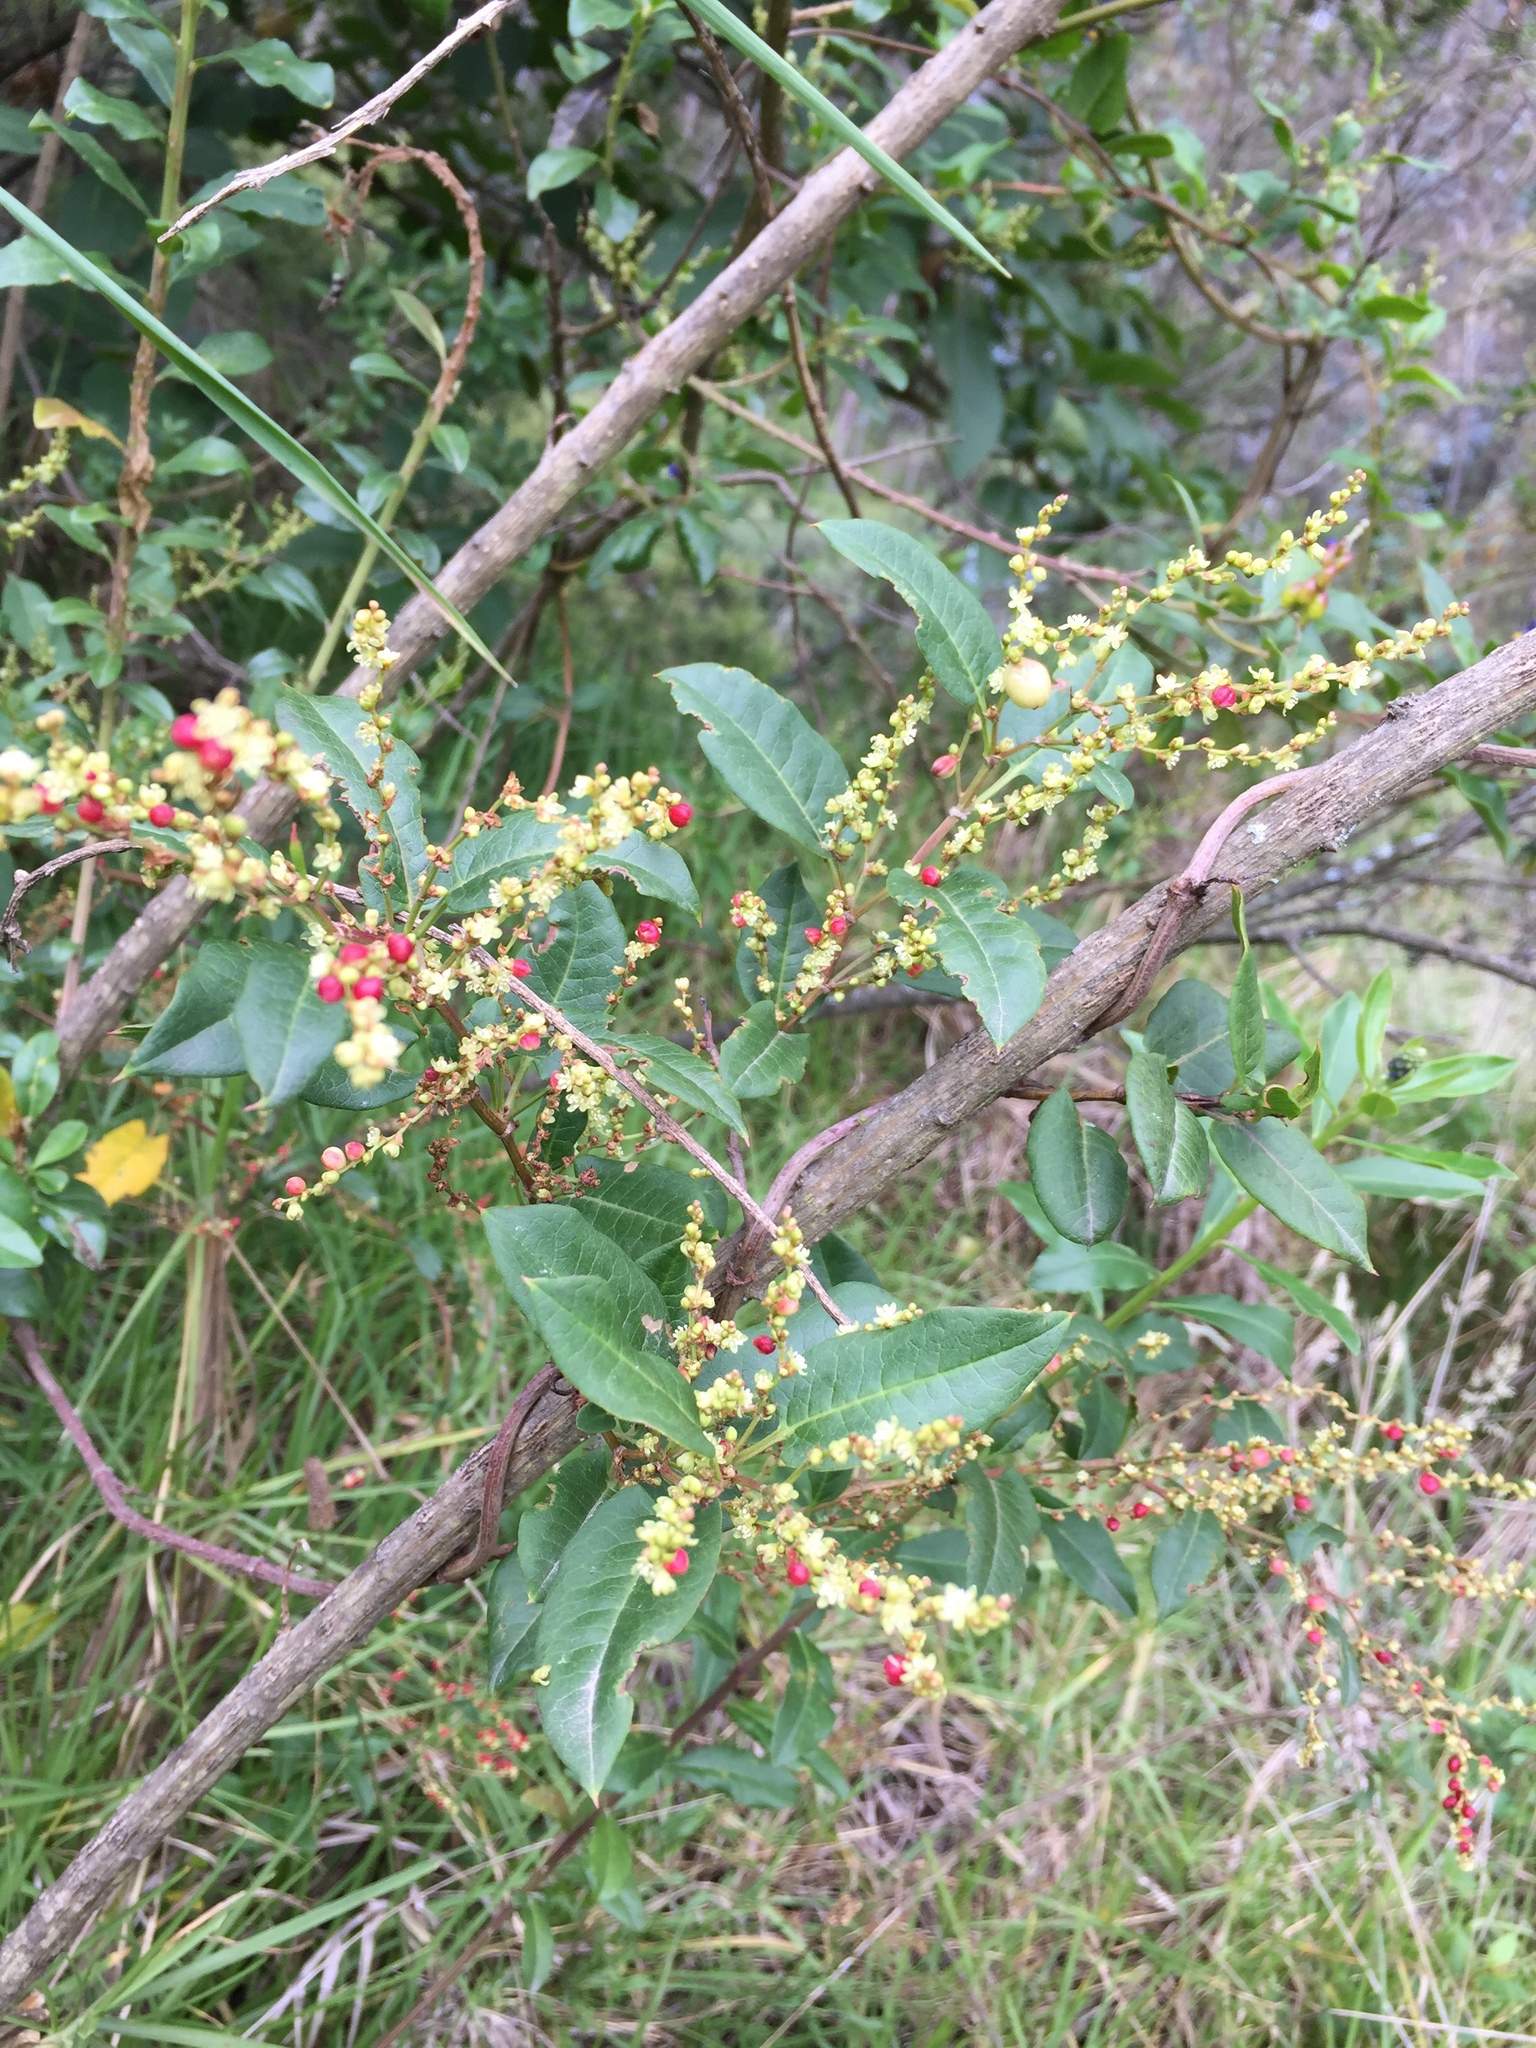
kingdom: Plantae
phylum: Tracheophyta
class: Magnoliopsida
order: Caryophyllales
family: Polygonaceae
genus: Muehlenbeckia
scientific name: Muehlenbeckia tamnifolia
